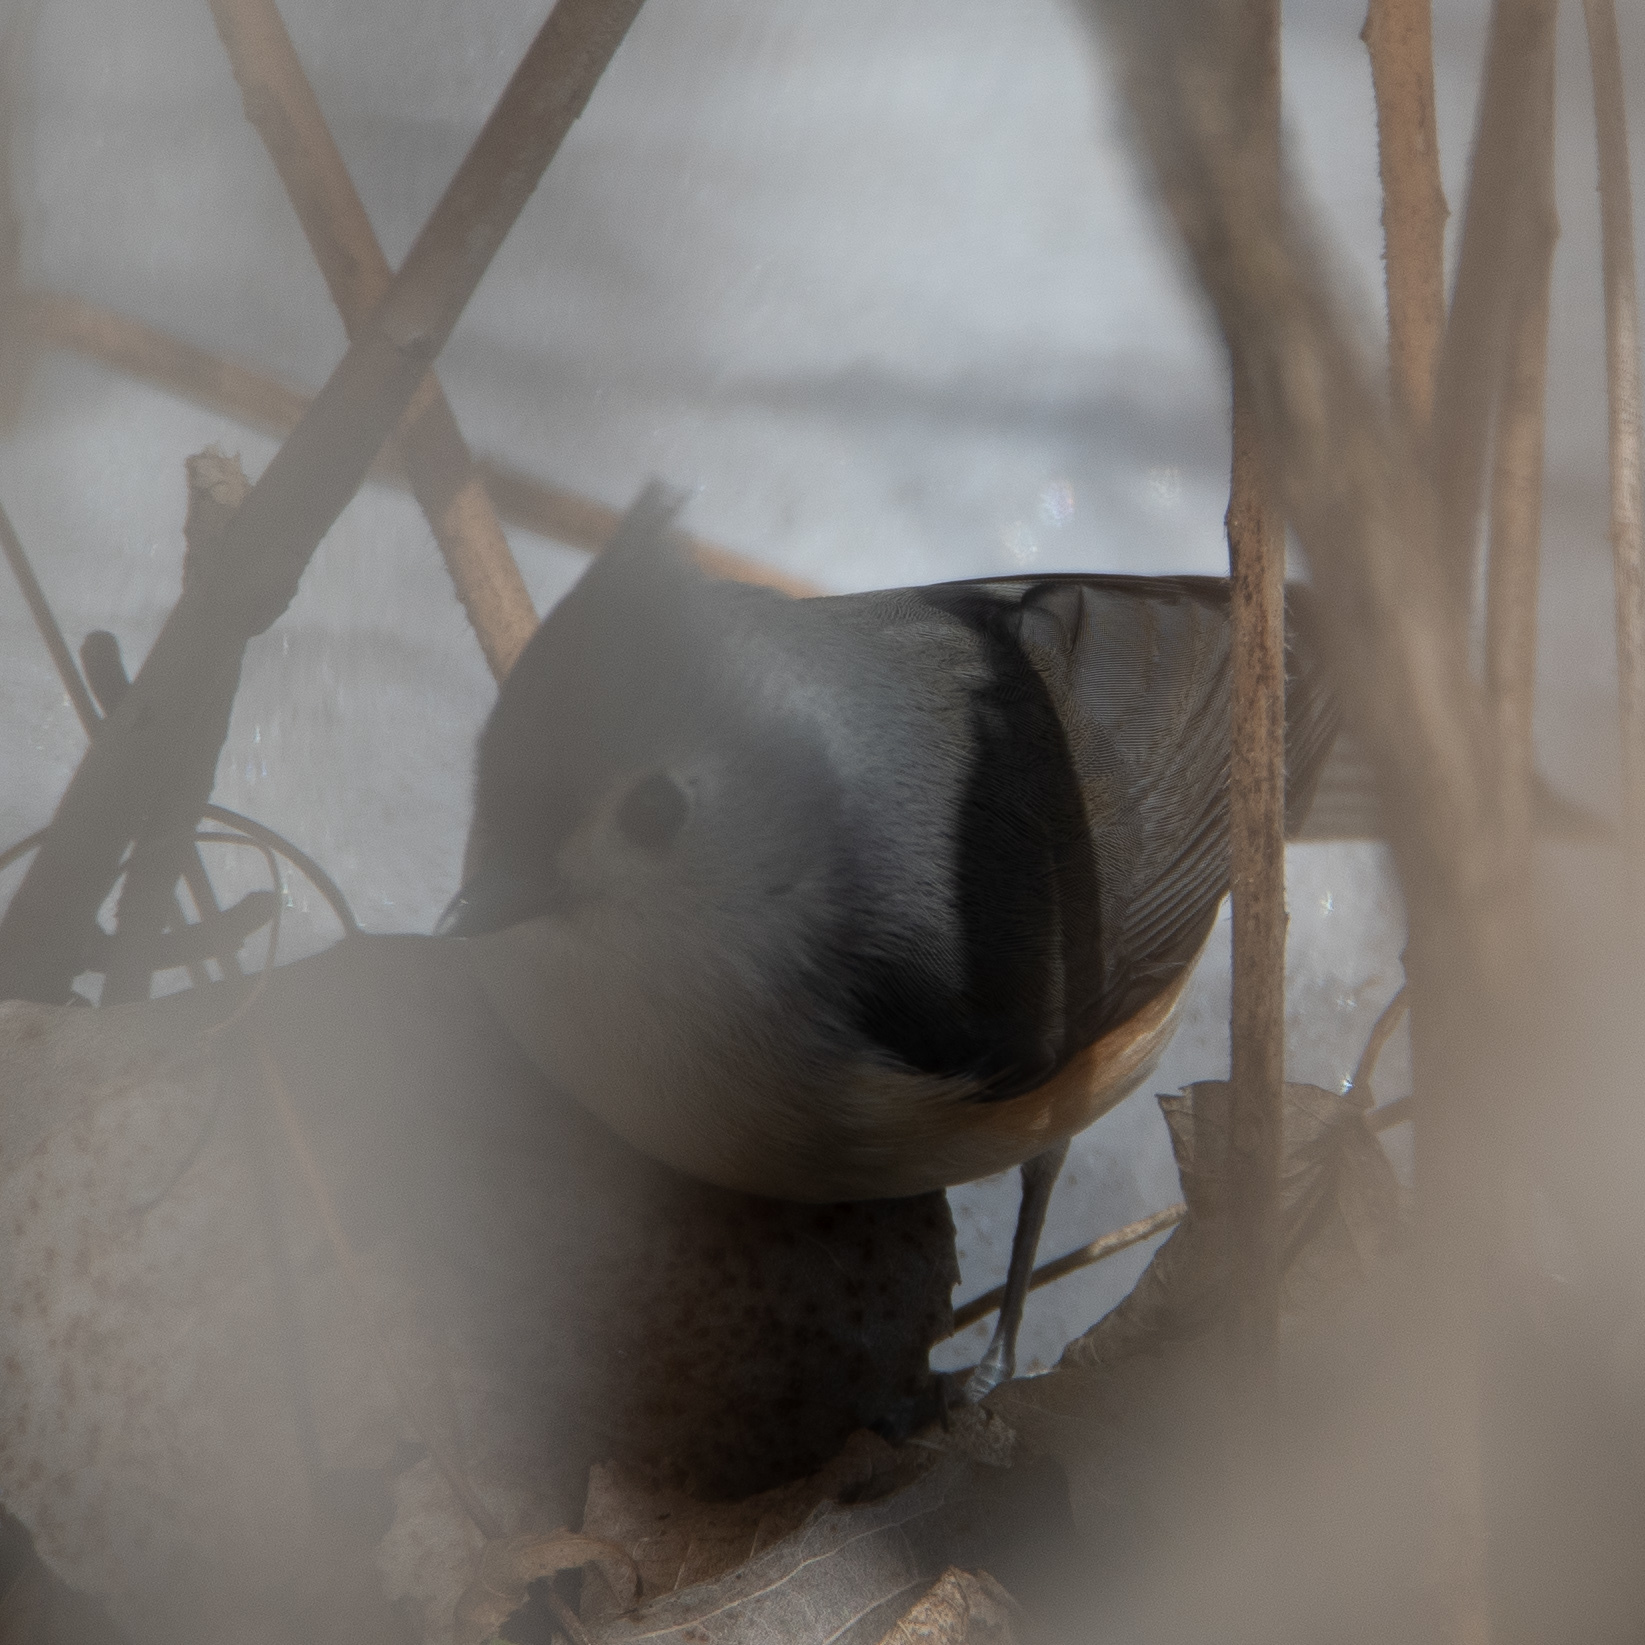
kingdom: Animalia
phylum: Chordata
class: Aves
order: Passeriformes
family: Paridae
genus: Baeolophus
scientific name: Baeolophus bicolor
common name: Tufted titmouse
